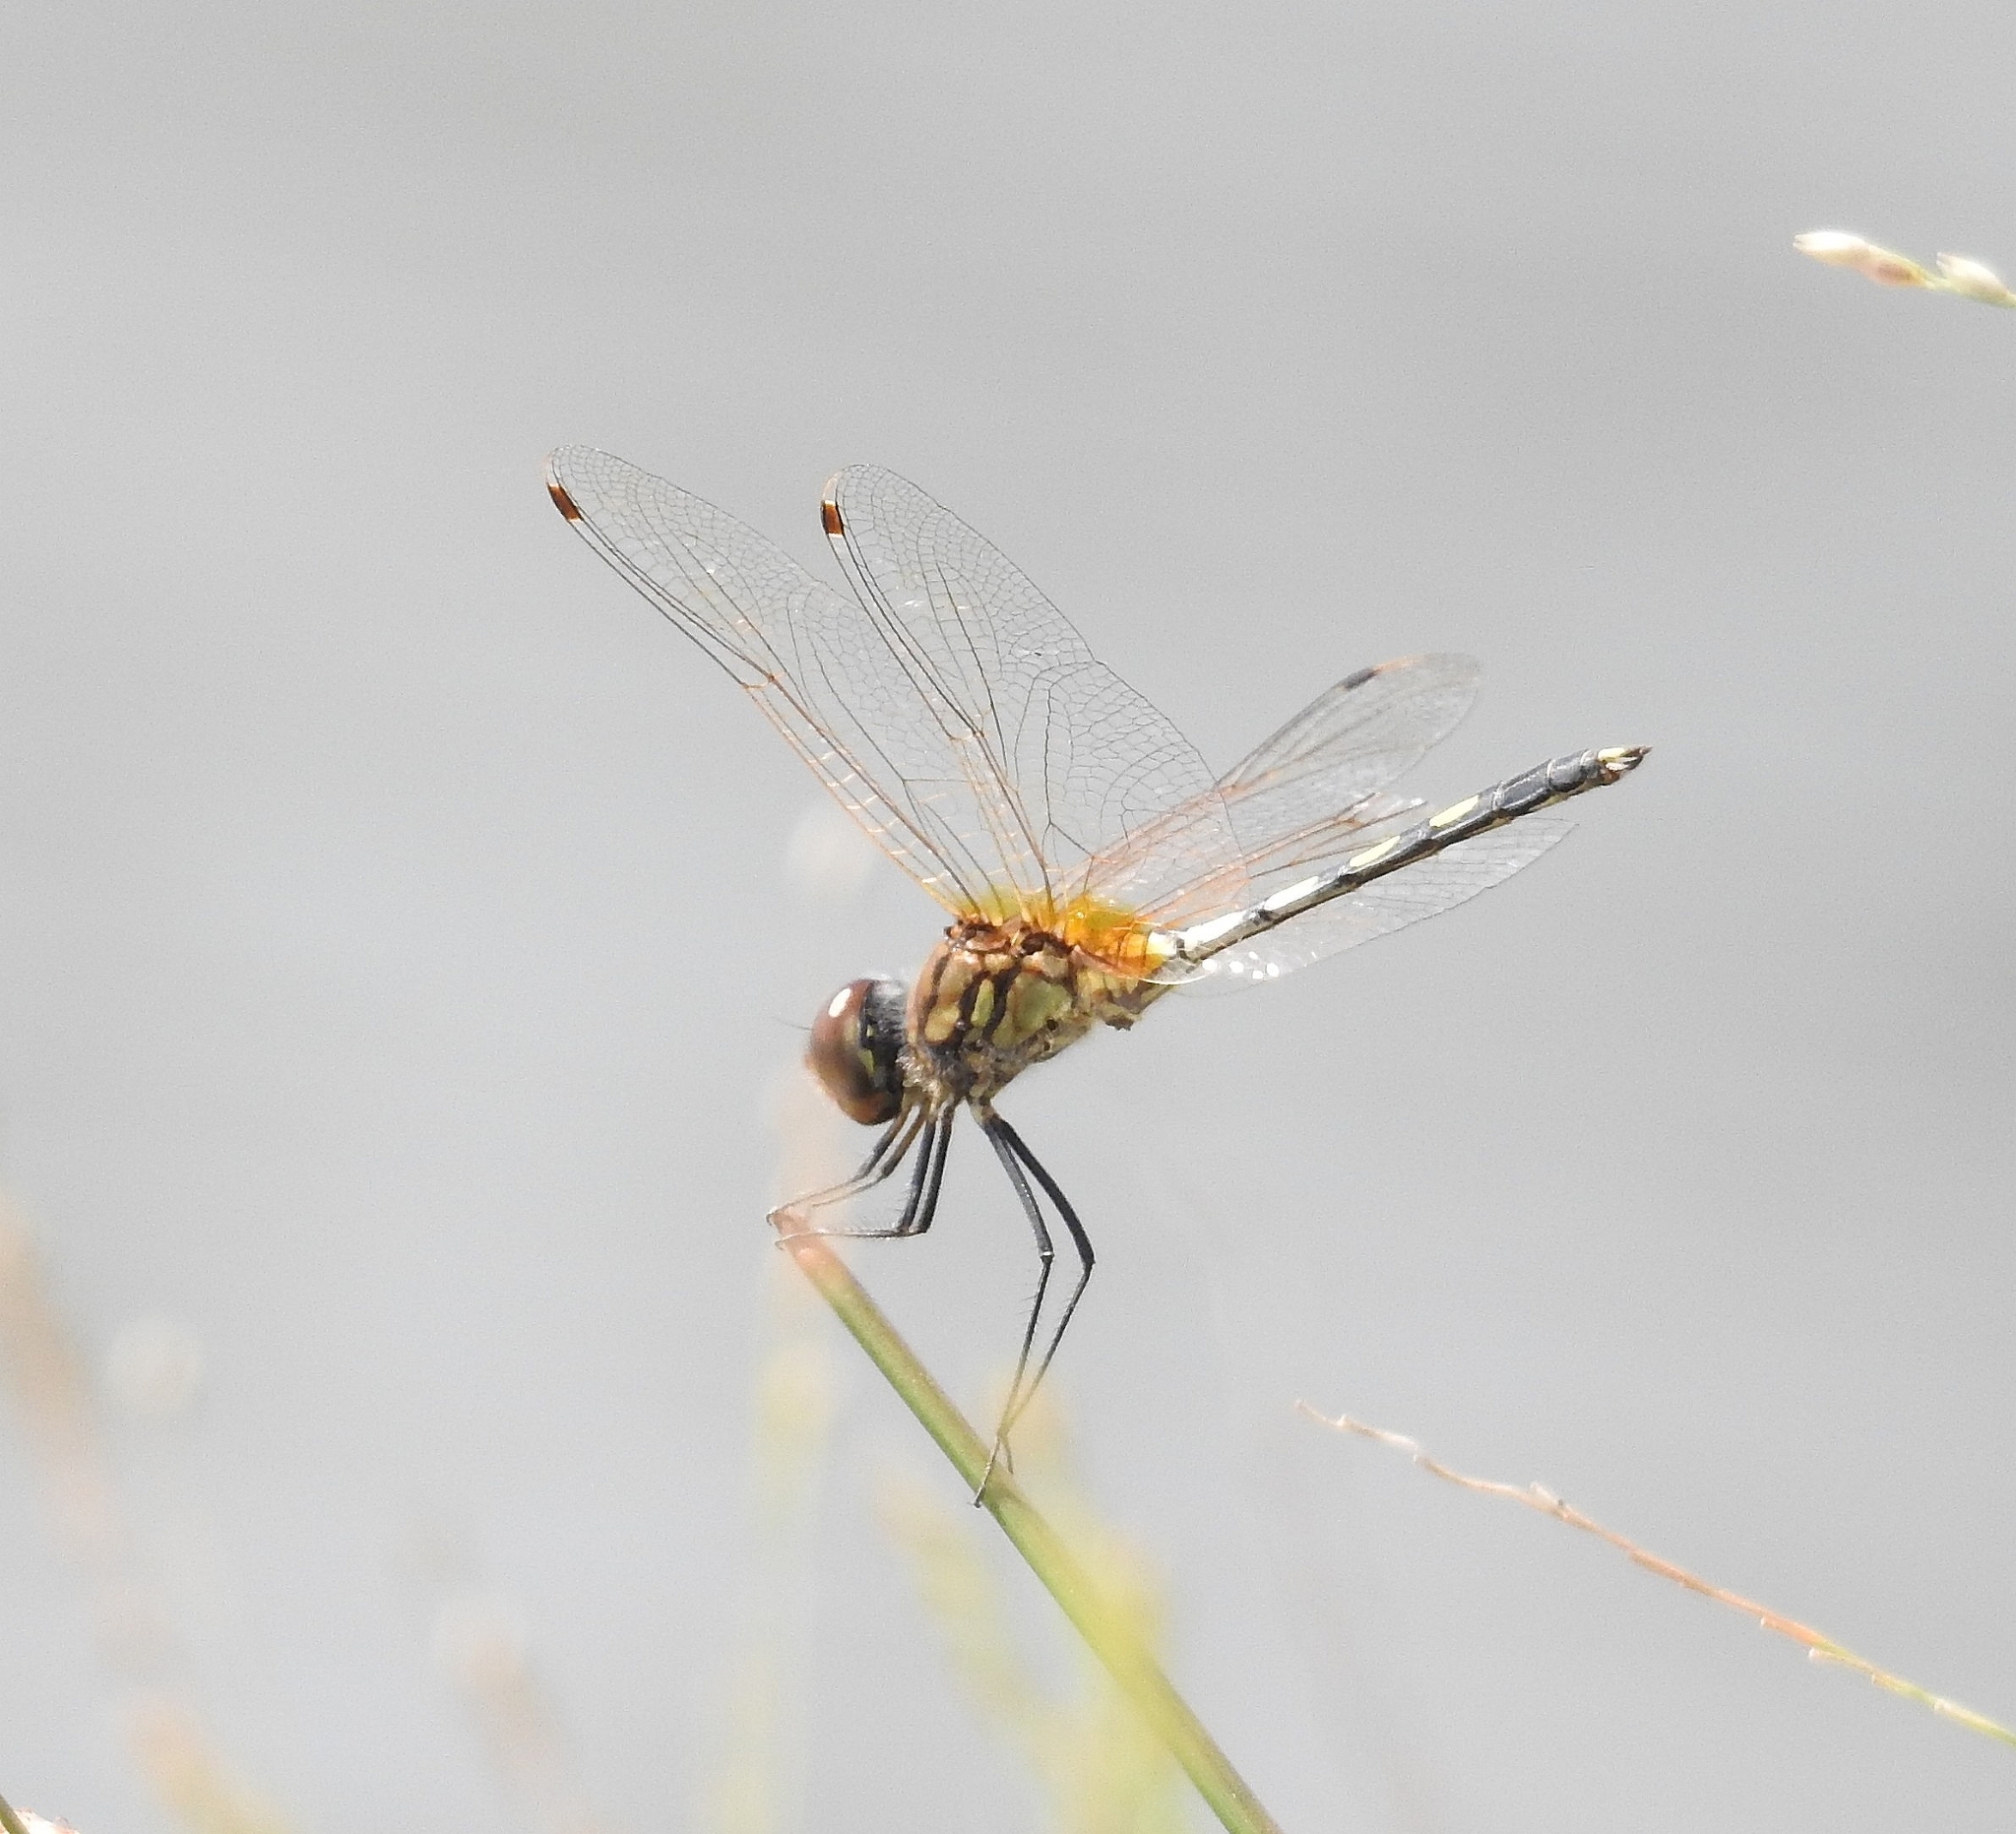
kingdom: Animalia
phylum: Arthropoda
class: Insecta
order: Odonata
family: Libellulidae
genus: Trithemis
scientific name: Trithemis pallidinervis
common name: Dancing dropwing
